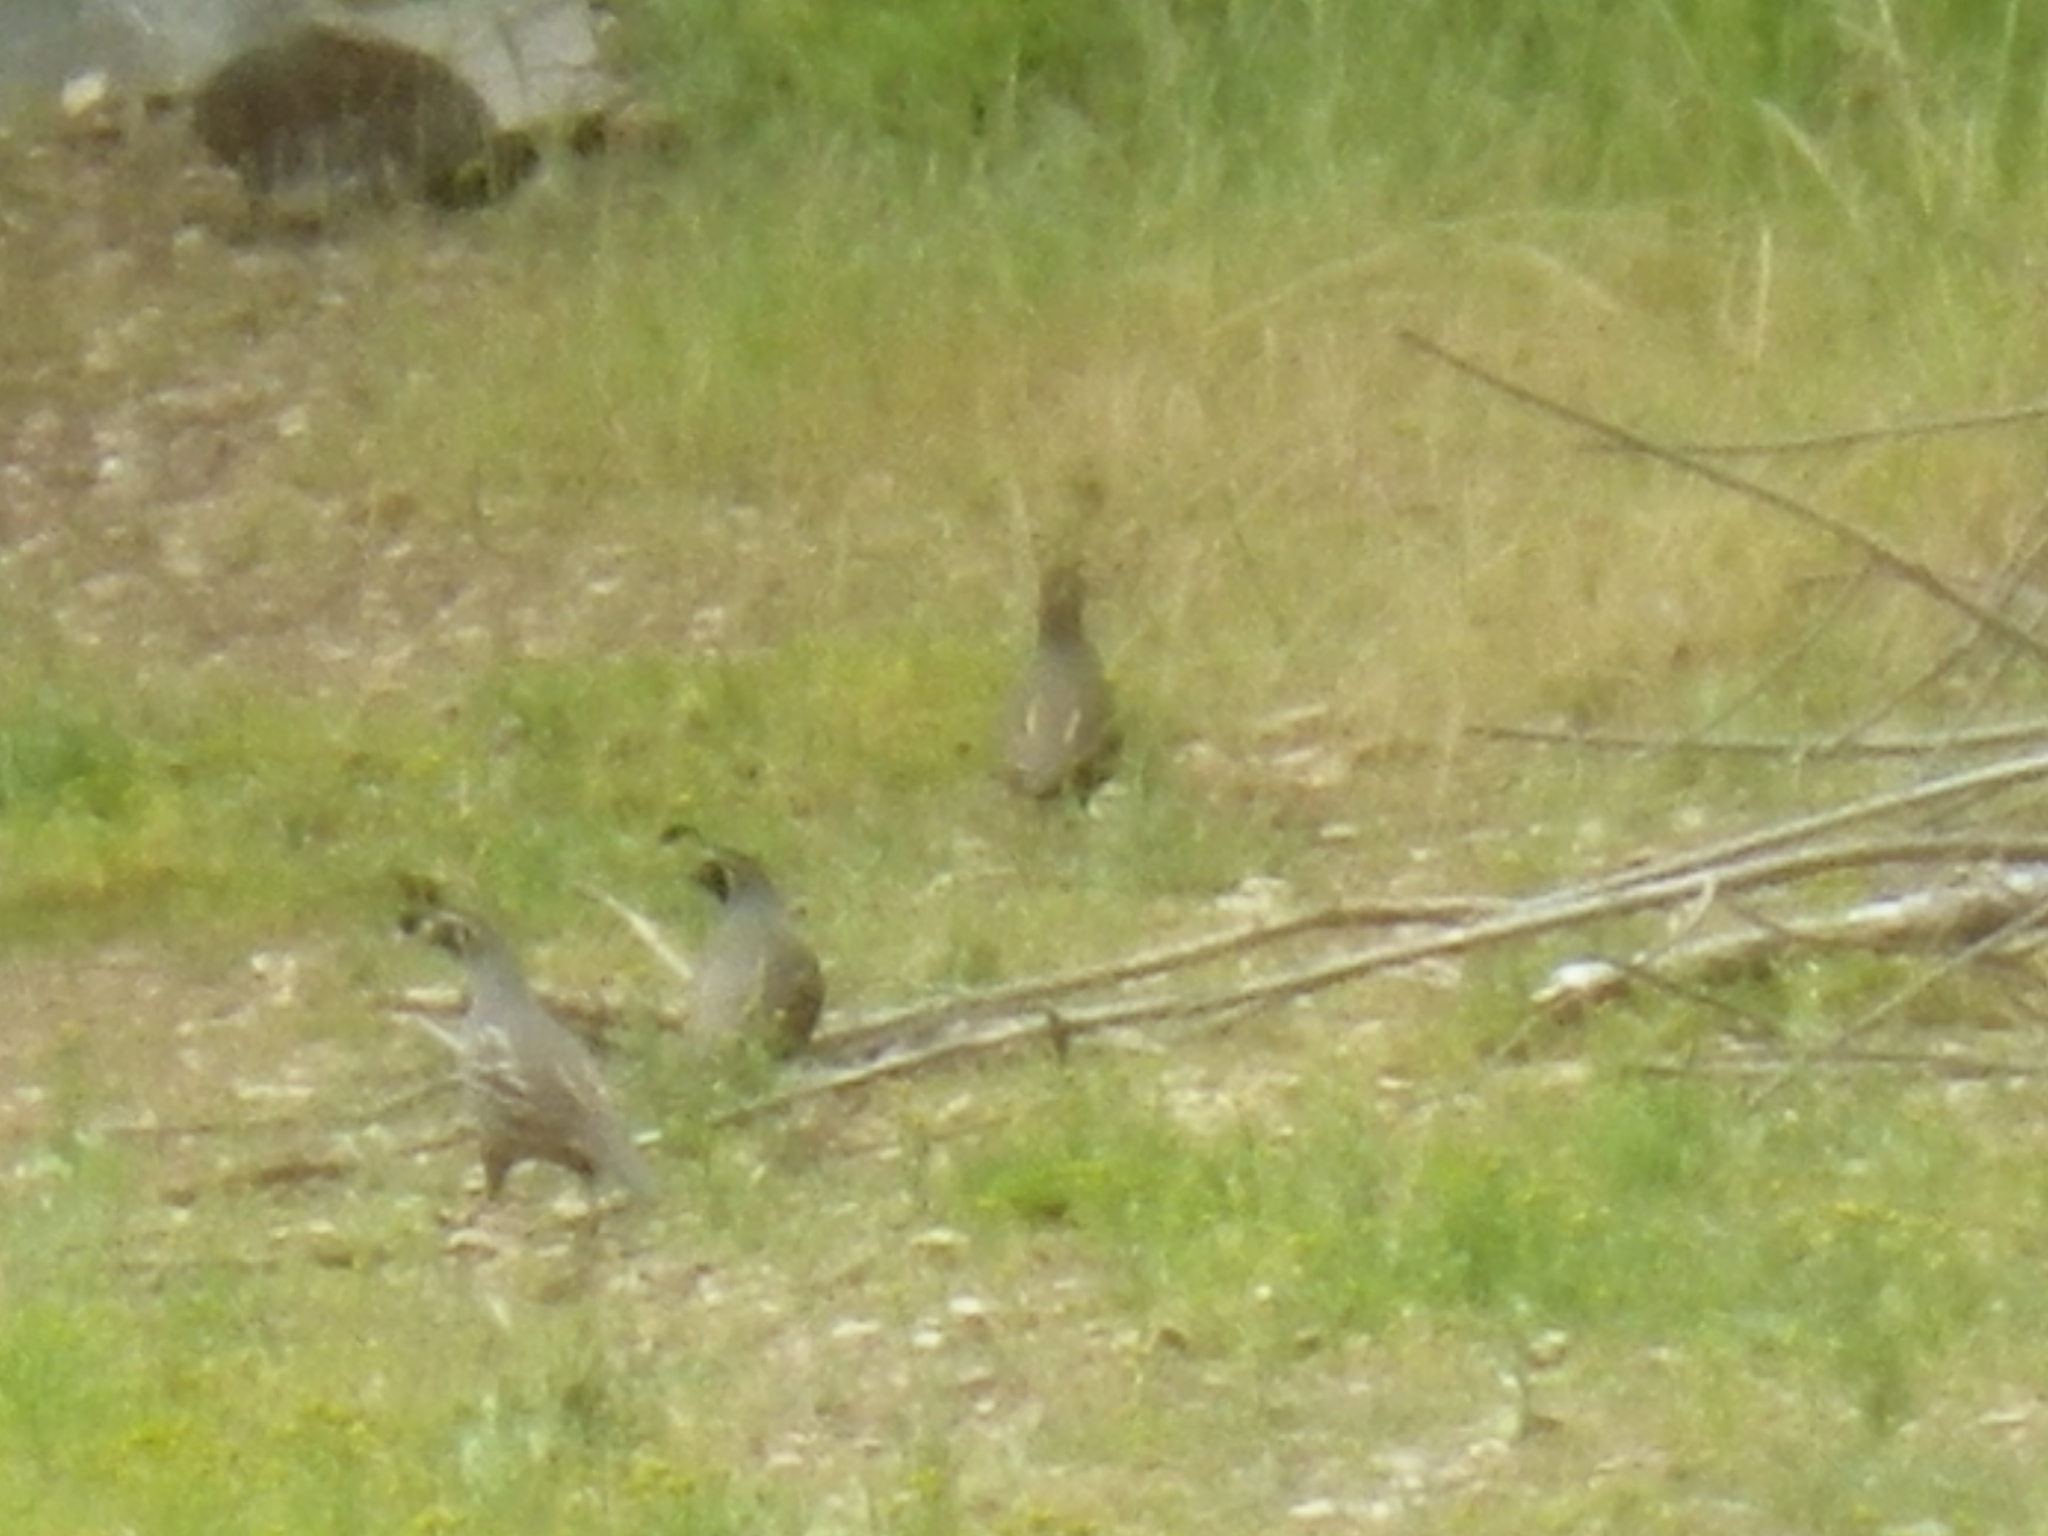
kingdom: Animalia
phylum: Chordata
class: Aves
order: Galliformes
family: Odontophoridae
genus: Callipepla
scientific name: Callipepla californica
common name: California quail
